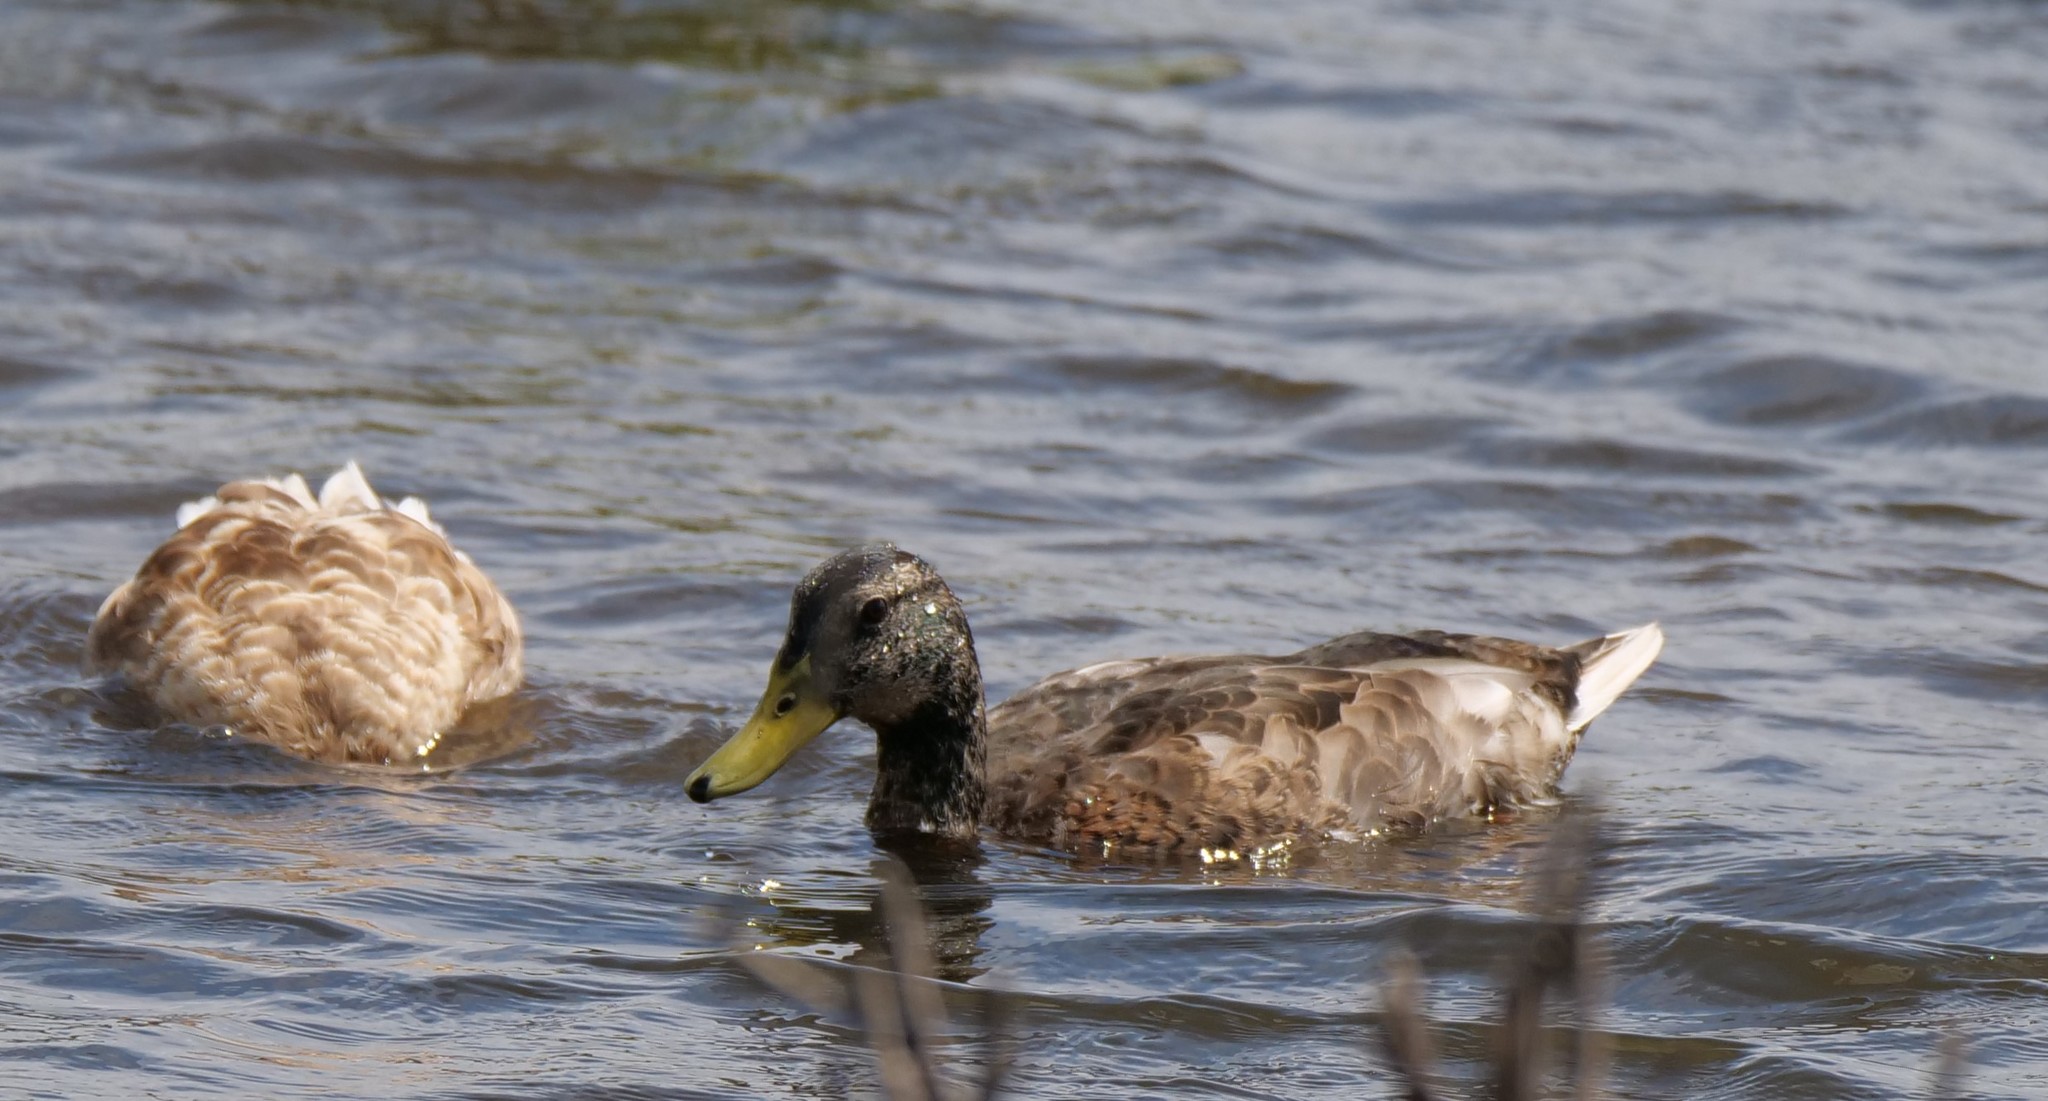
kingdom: Animalia
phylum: Chordata
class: Aves
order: Anseriformes
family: Anatidae
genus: Anas
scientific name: Anas platyrhynchos
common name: Mallard
